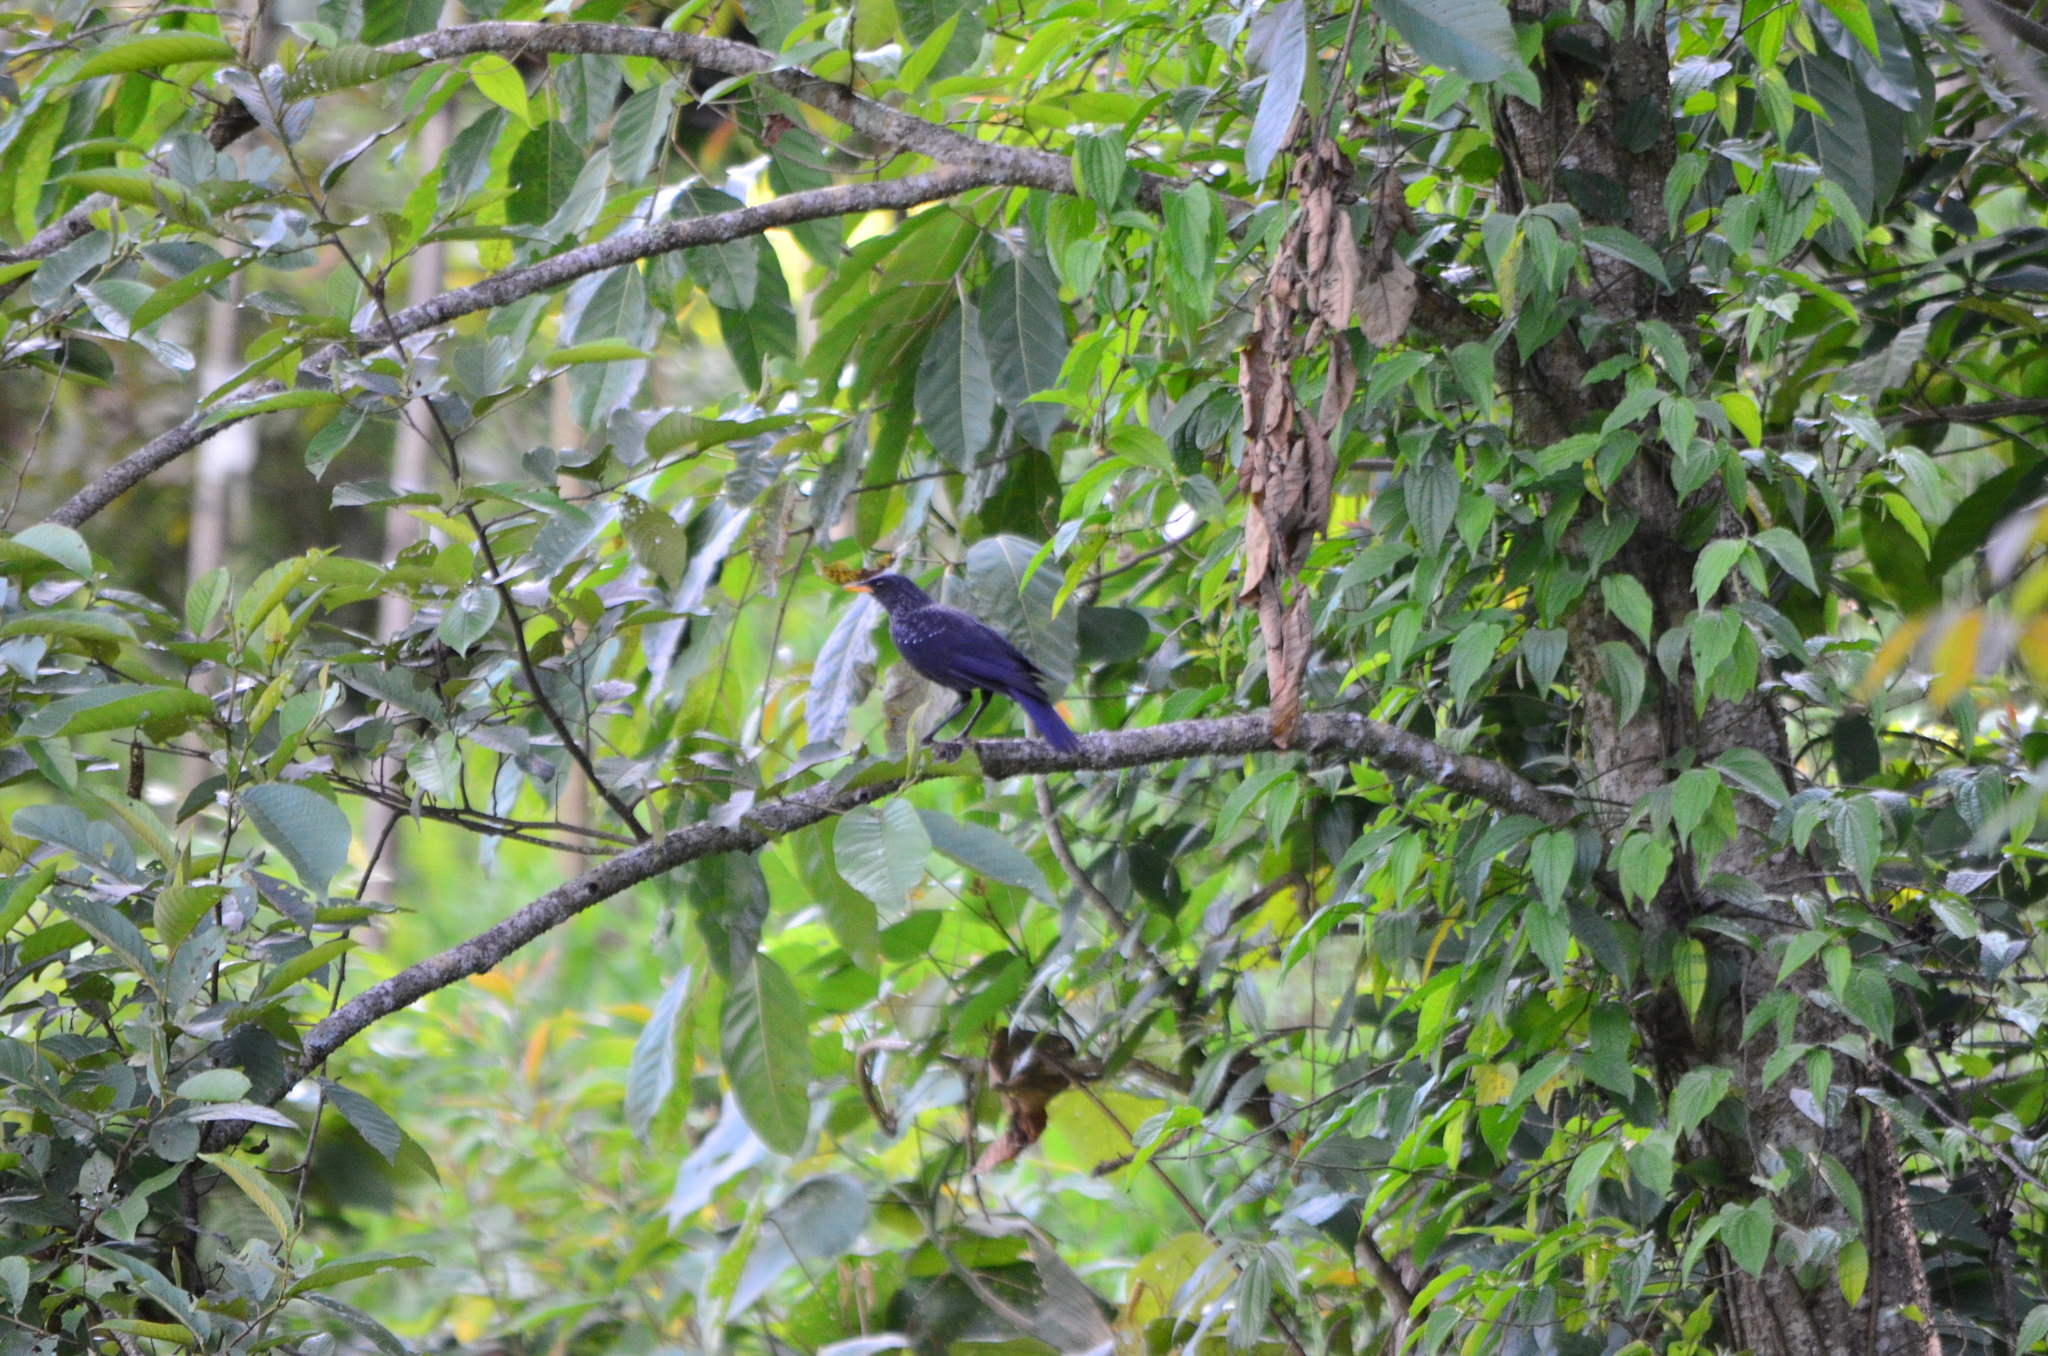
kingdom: Animalia
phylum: Chordata
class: Aves
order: Passeriformes
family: Muscicapidae
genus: Myophonus
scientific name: Myophonus caeruleus
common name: Blue whistling-thrush
